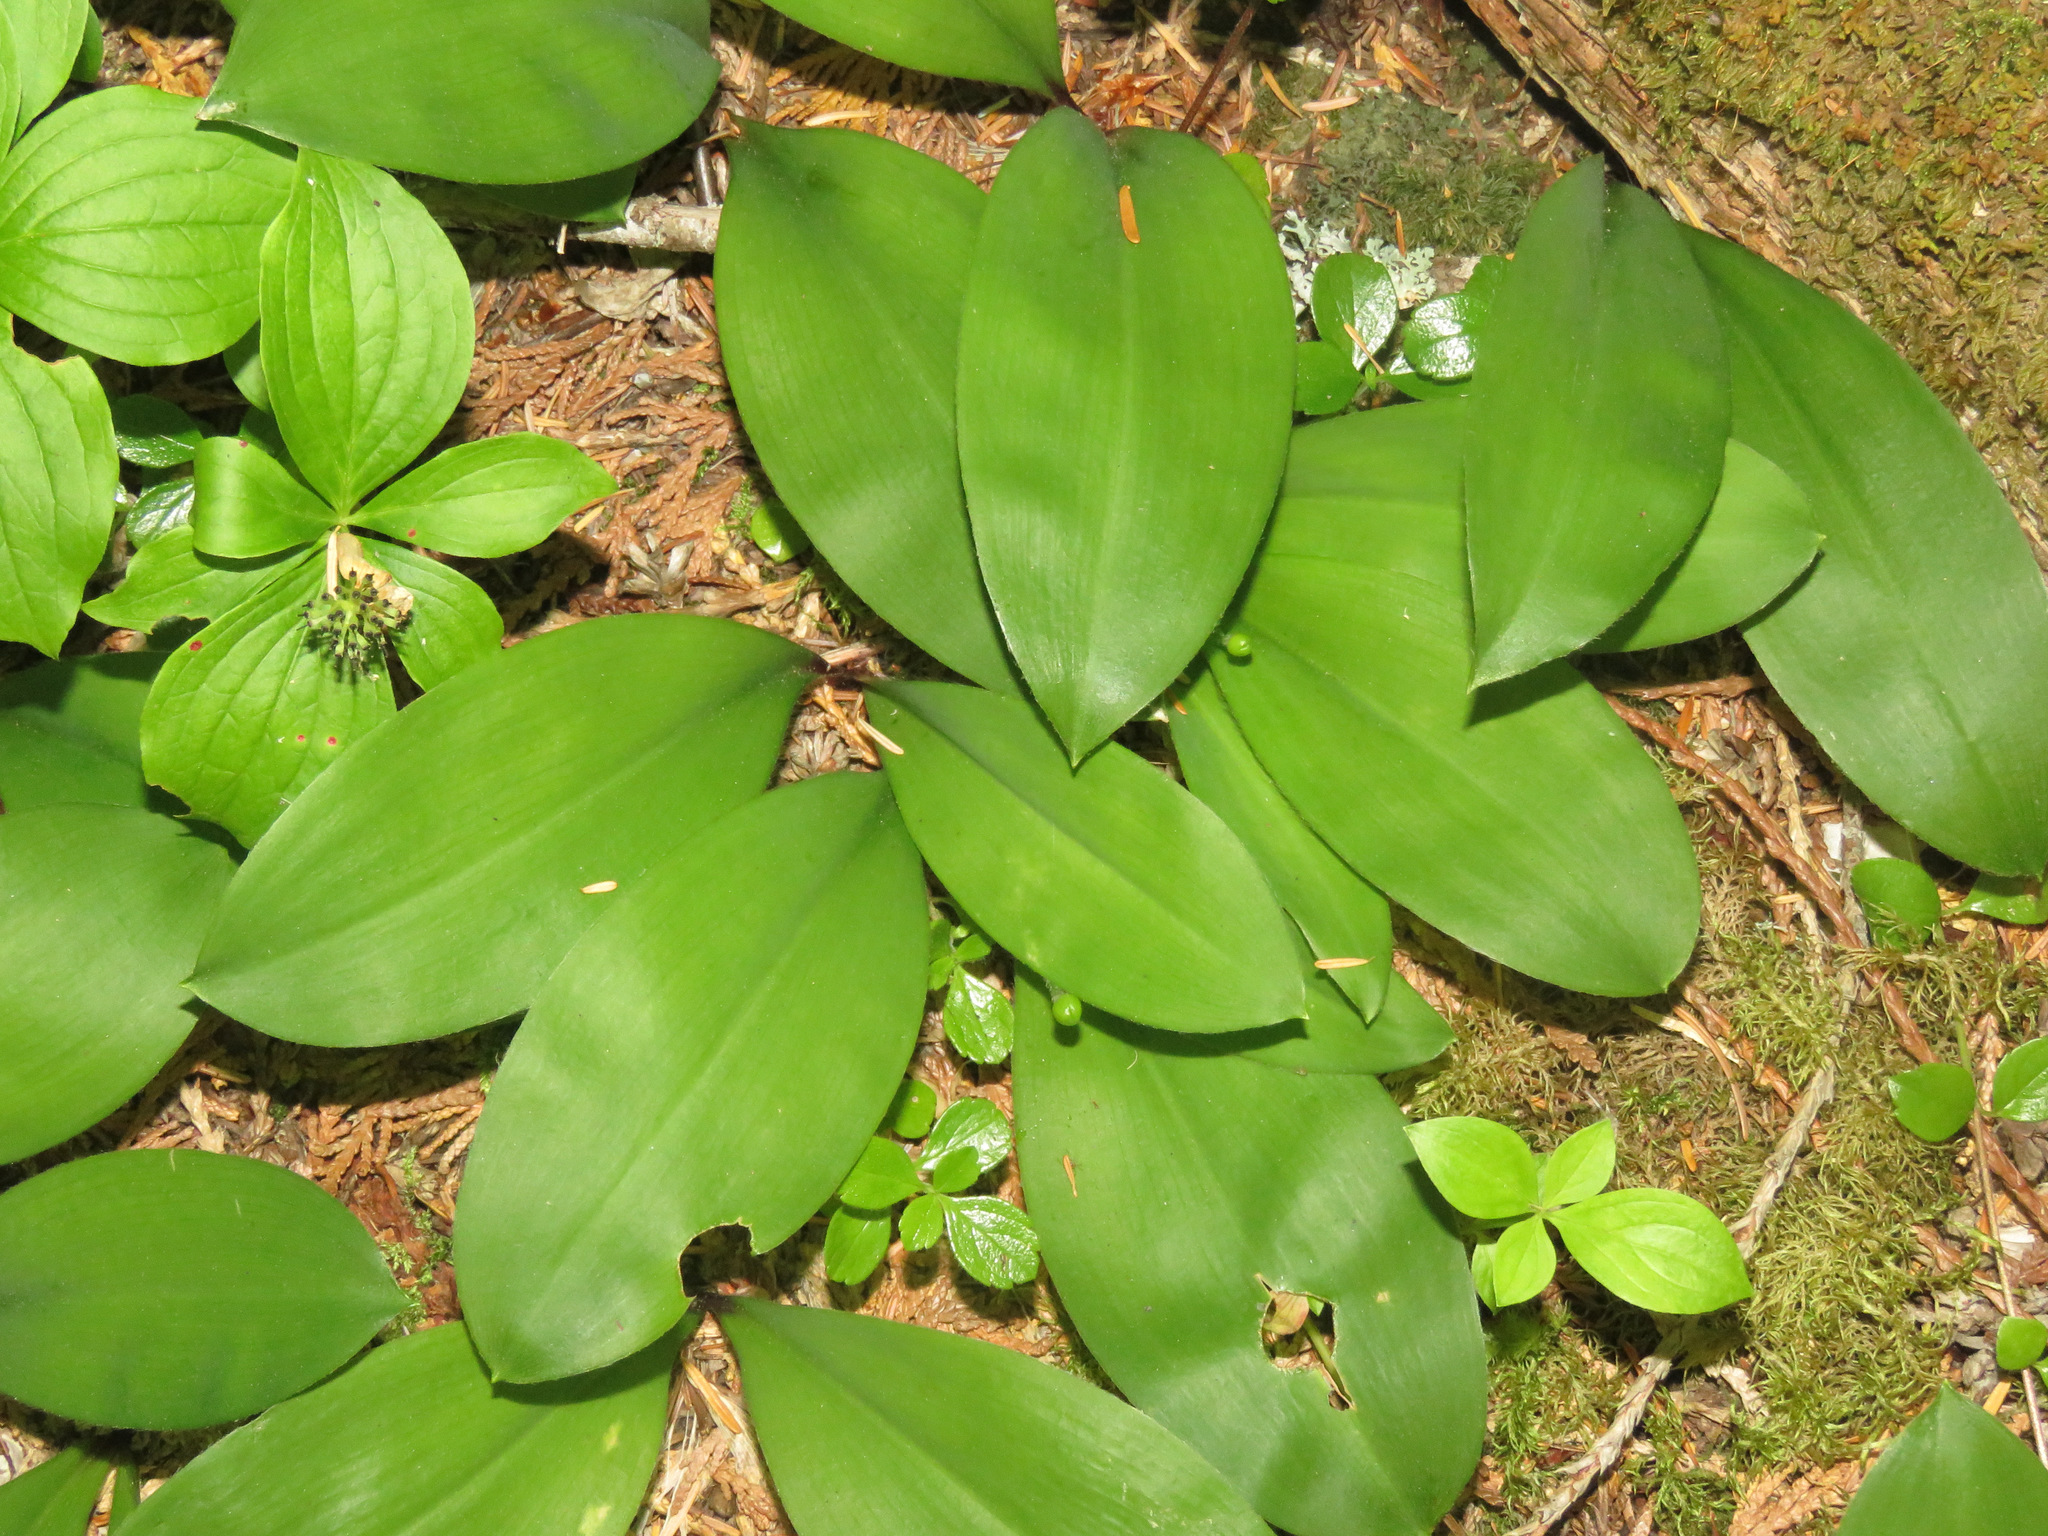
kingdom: Plantae
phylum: Tracheophyta
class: Liliopsida
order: Liliales
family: Liliaceae
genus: Clintonia
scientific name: Clintonia uniflora
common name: Queen's cup
